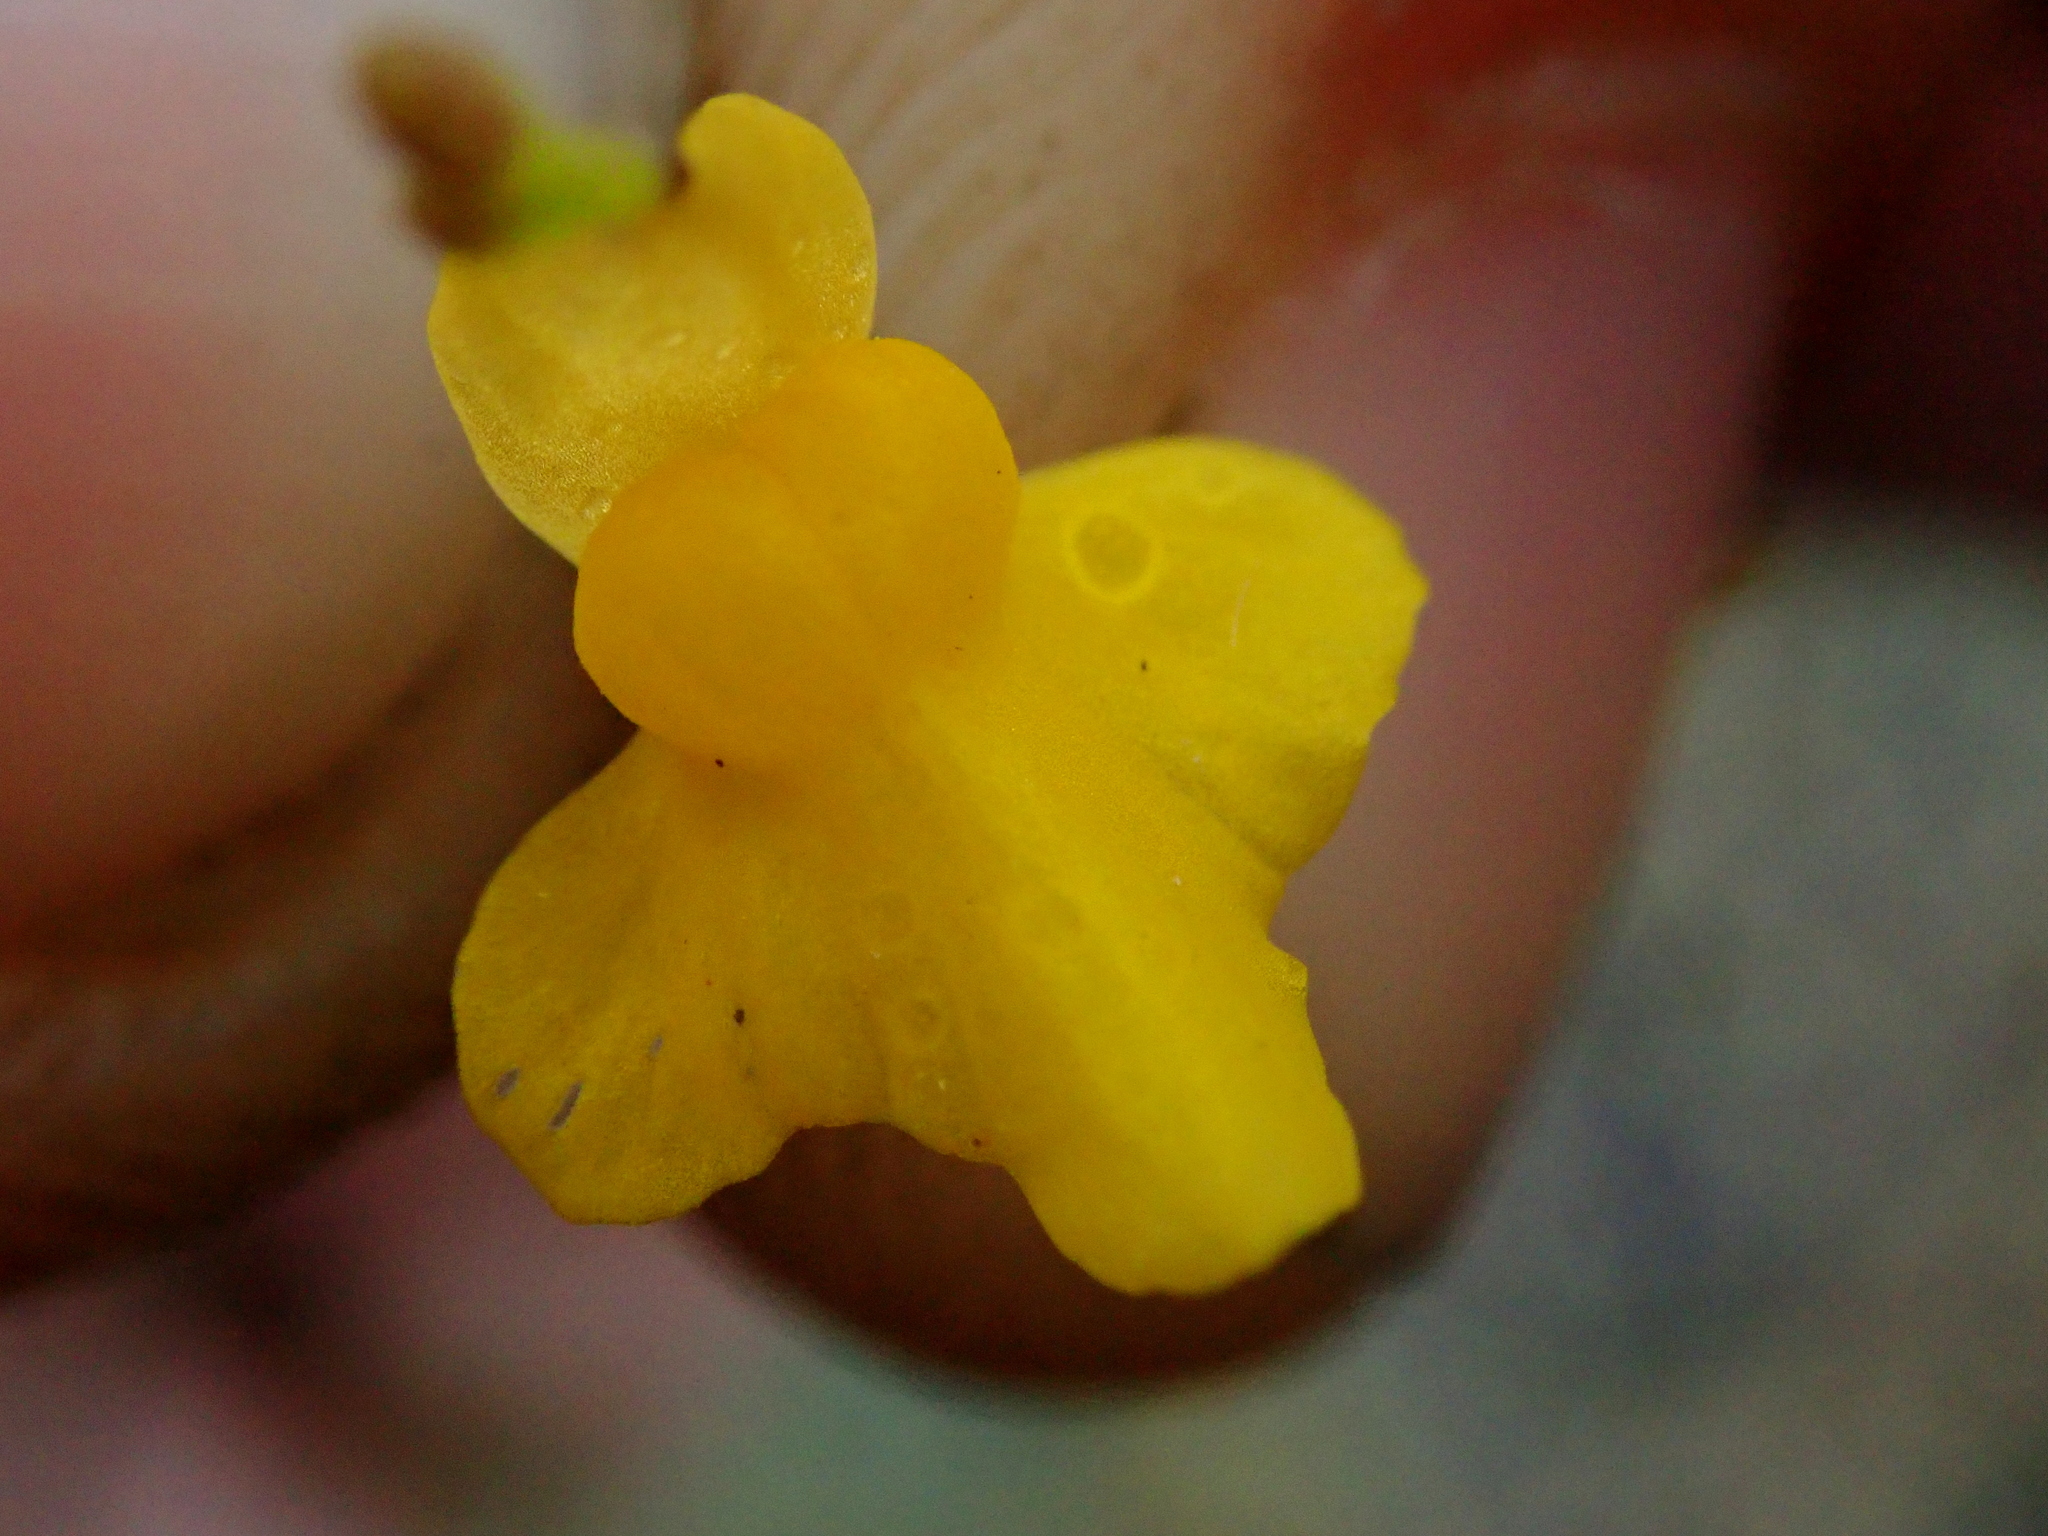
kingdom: Plantae
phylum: Tracheophyta
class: Magnoliopsida
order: Lamiales
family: Lentibulariaceae
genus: Utricularia
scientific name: Utricularia subulata
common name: Tiny bladderwort
